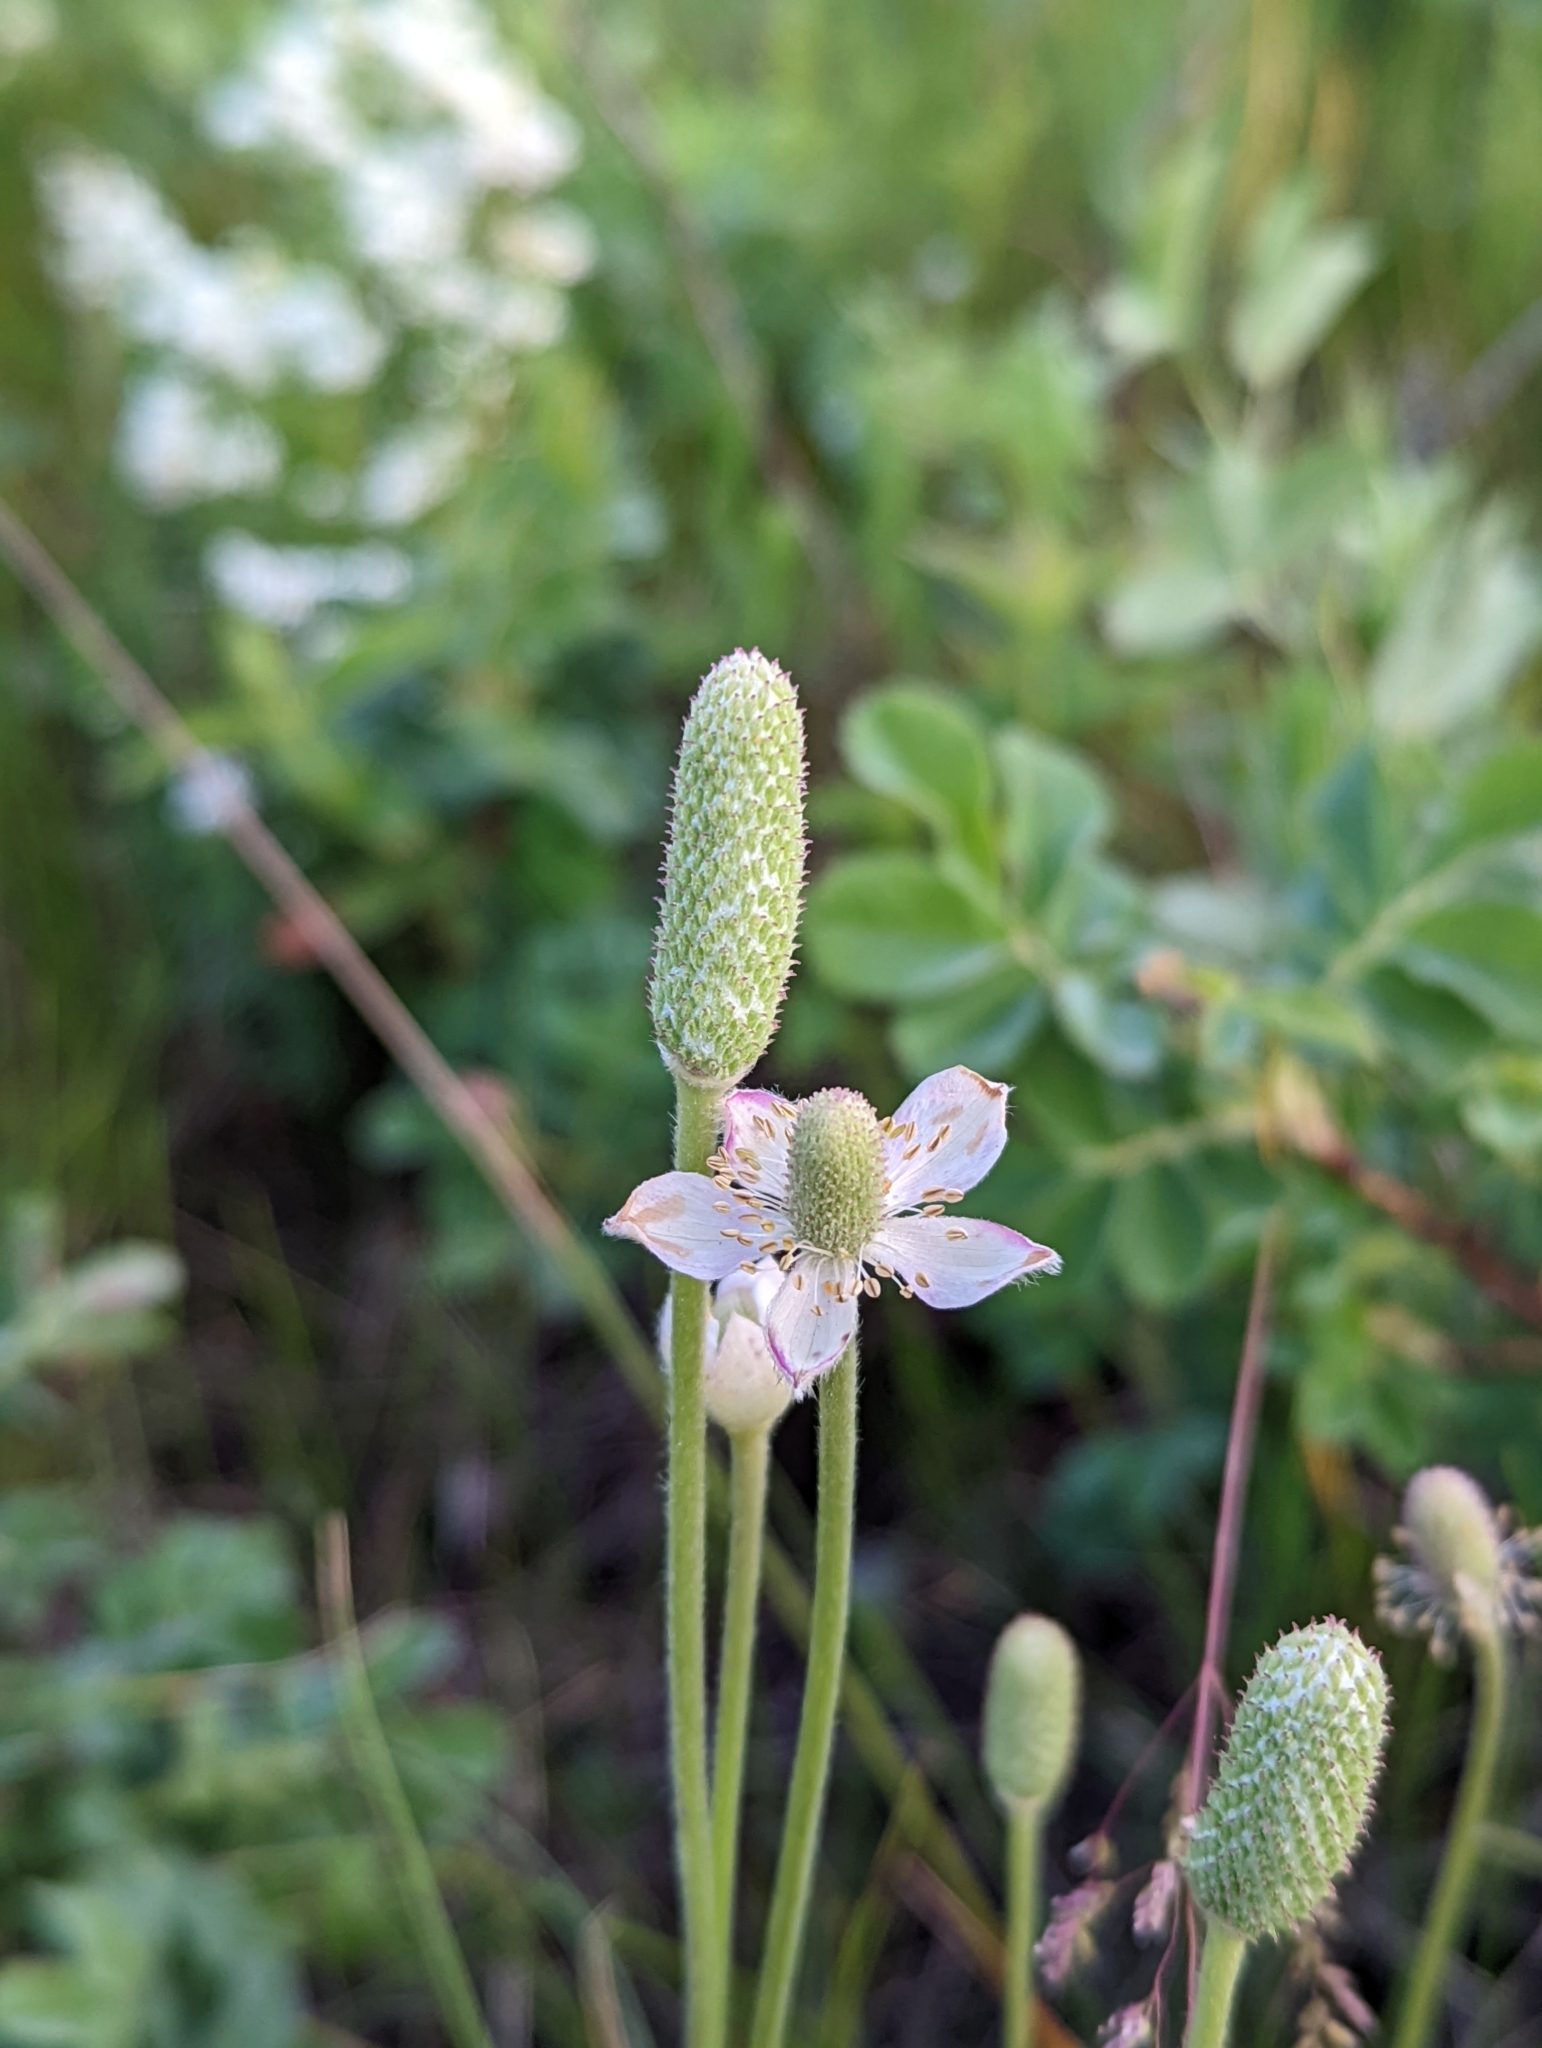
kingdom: Plantae
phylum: Tracheophyta
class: Magnoliopsida
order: Ranunculales
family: Ranunculaceae
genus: Anemone
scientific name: Anemone cylindrica
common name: Candle anemone
